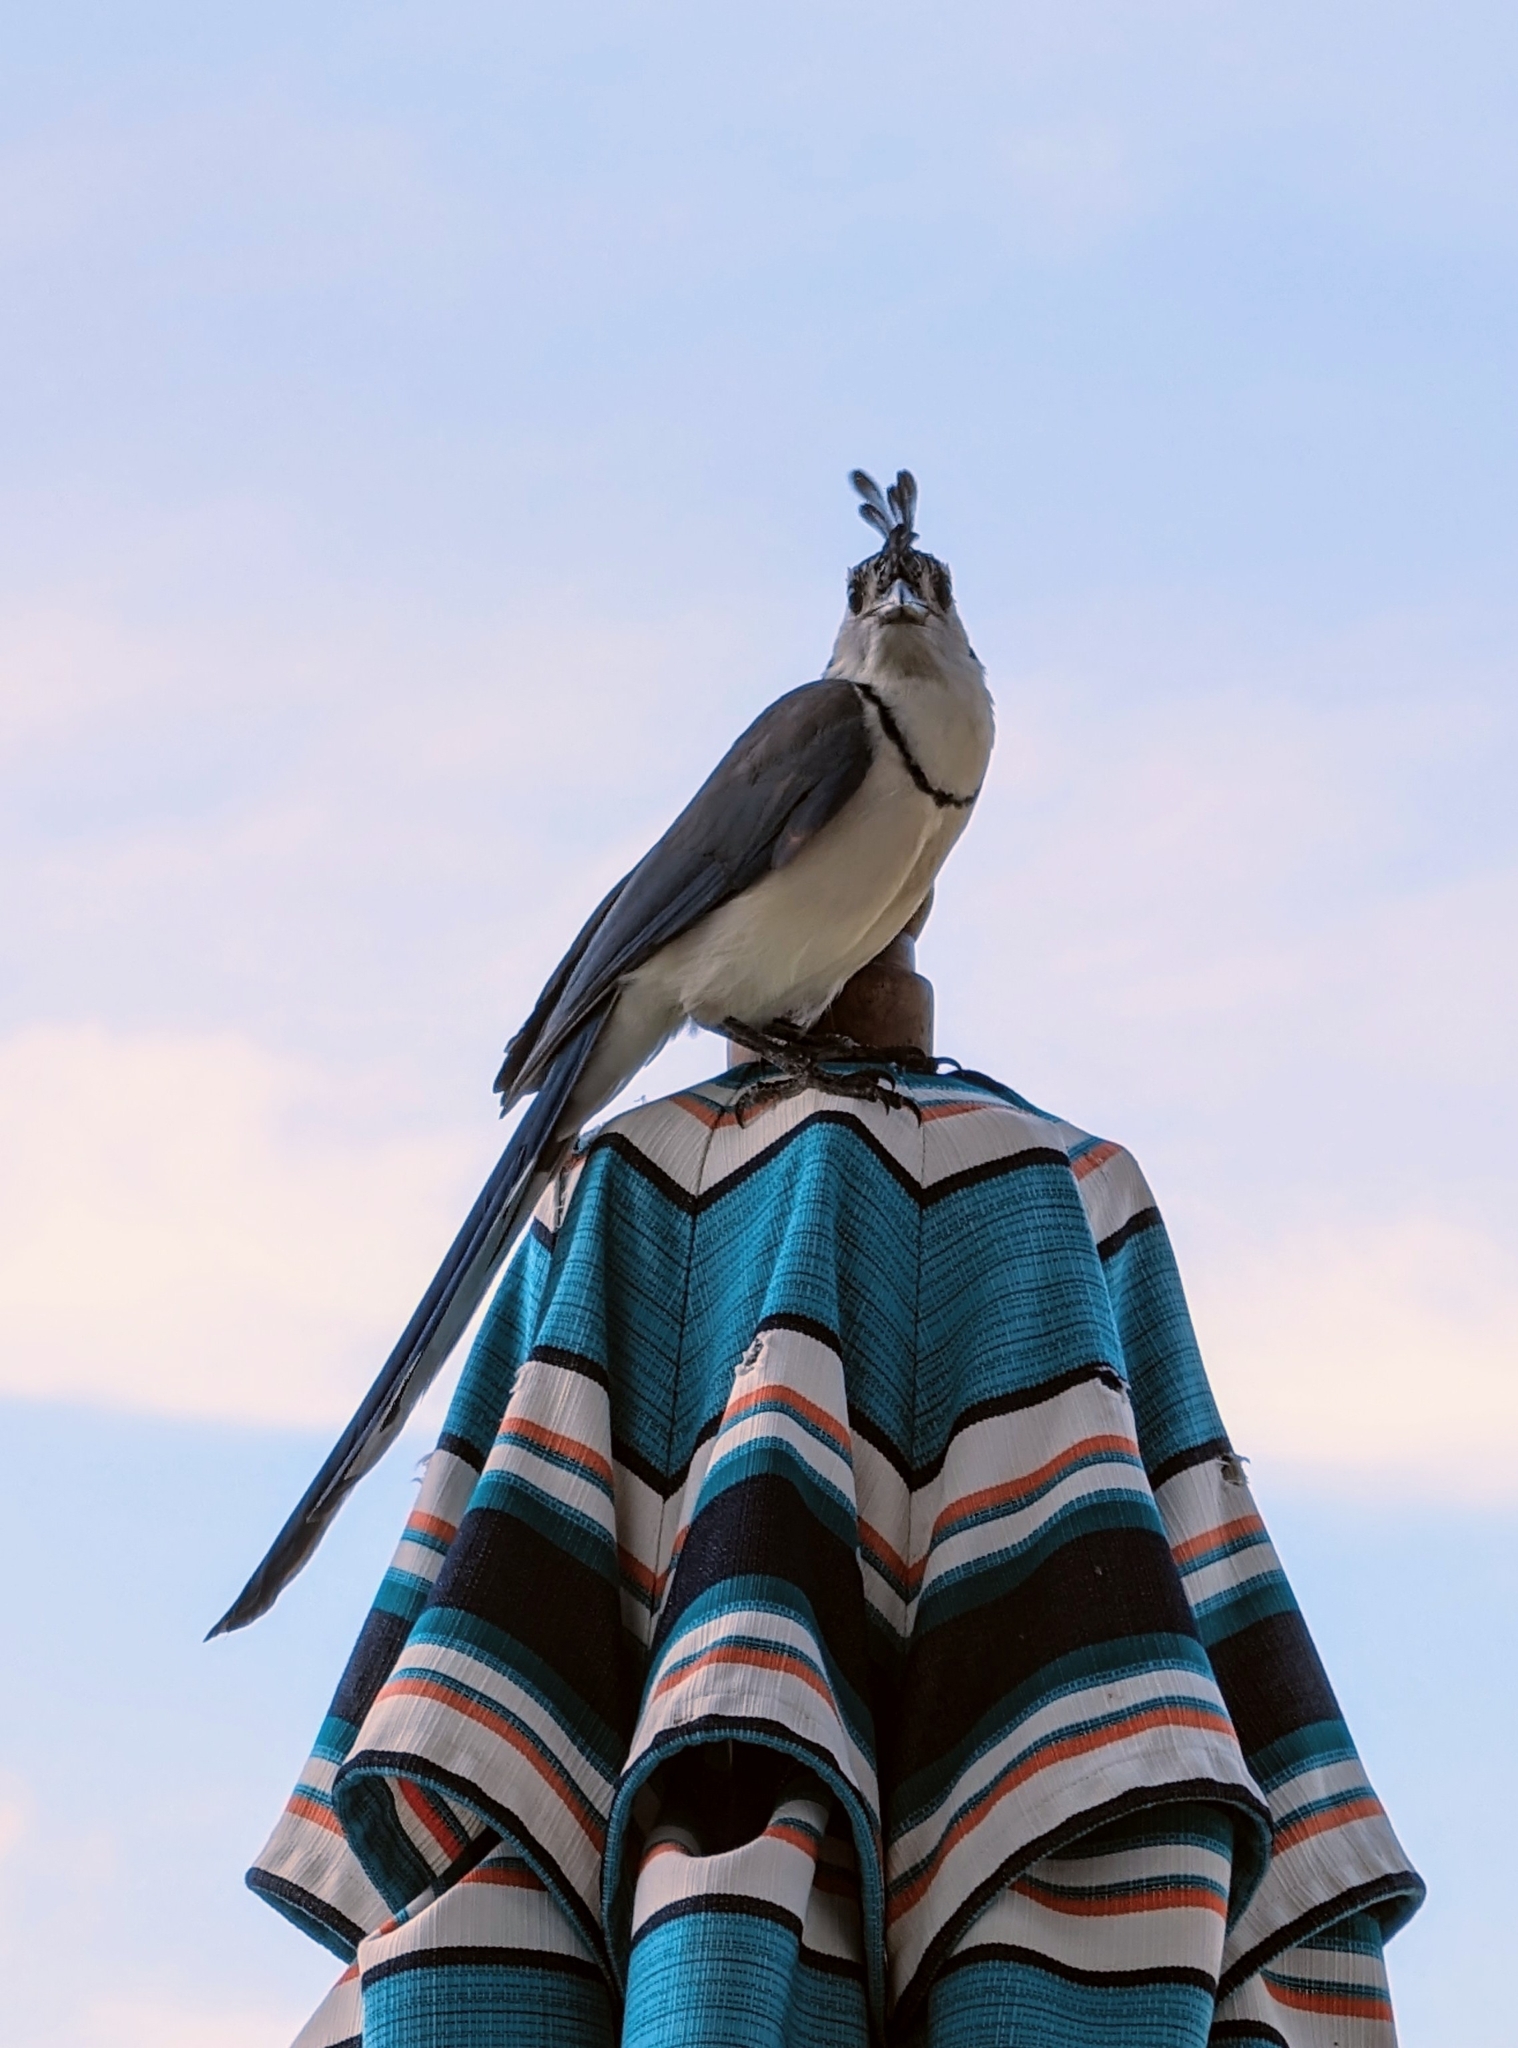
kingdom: Animalia
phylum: Chordata
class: Aves
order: Passeriformes
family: Corvidae
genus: Calocitta
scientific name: Calocitta formosa
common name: White-throated magpie-jay
